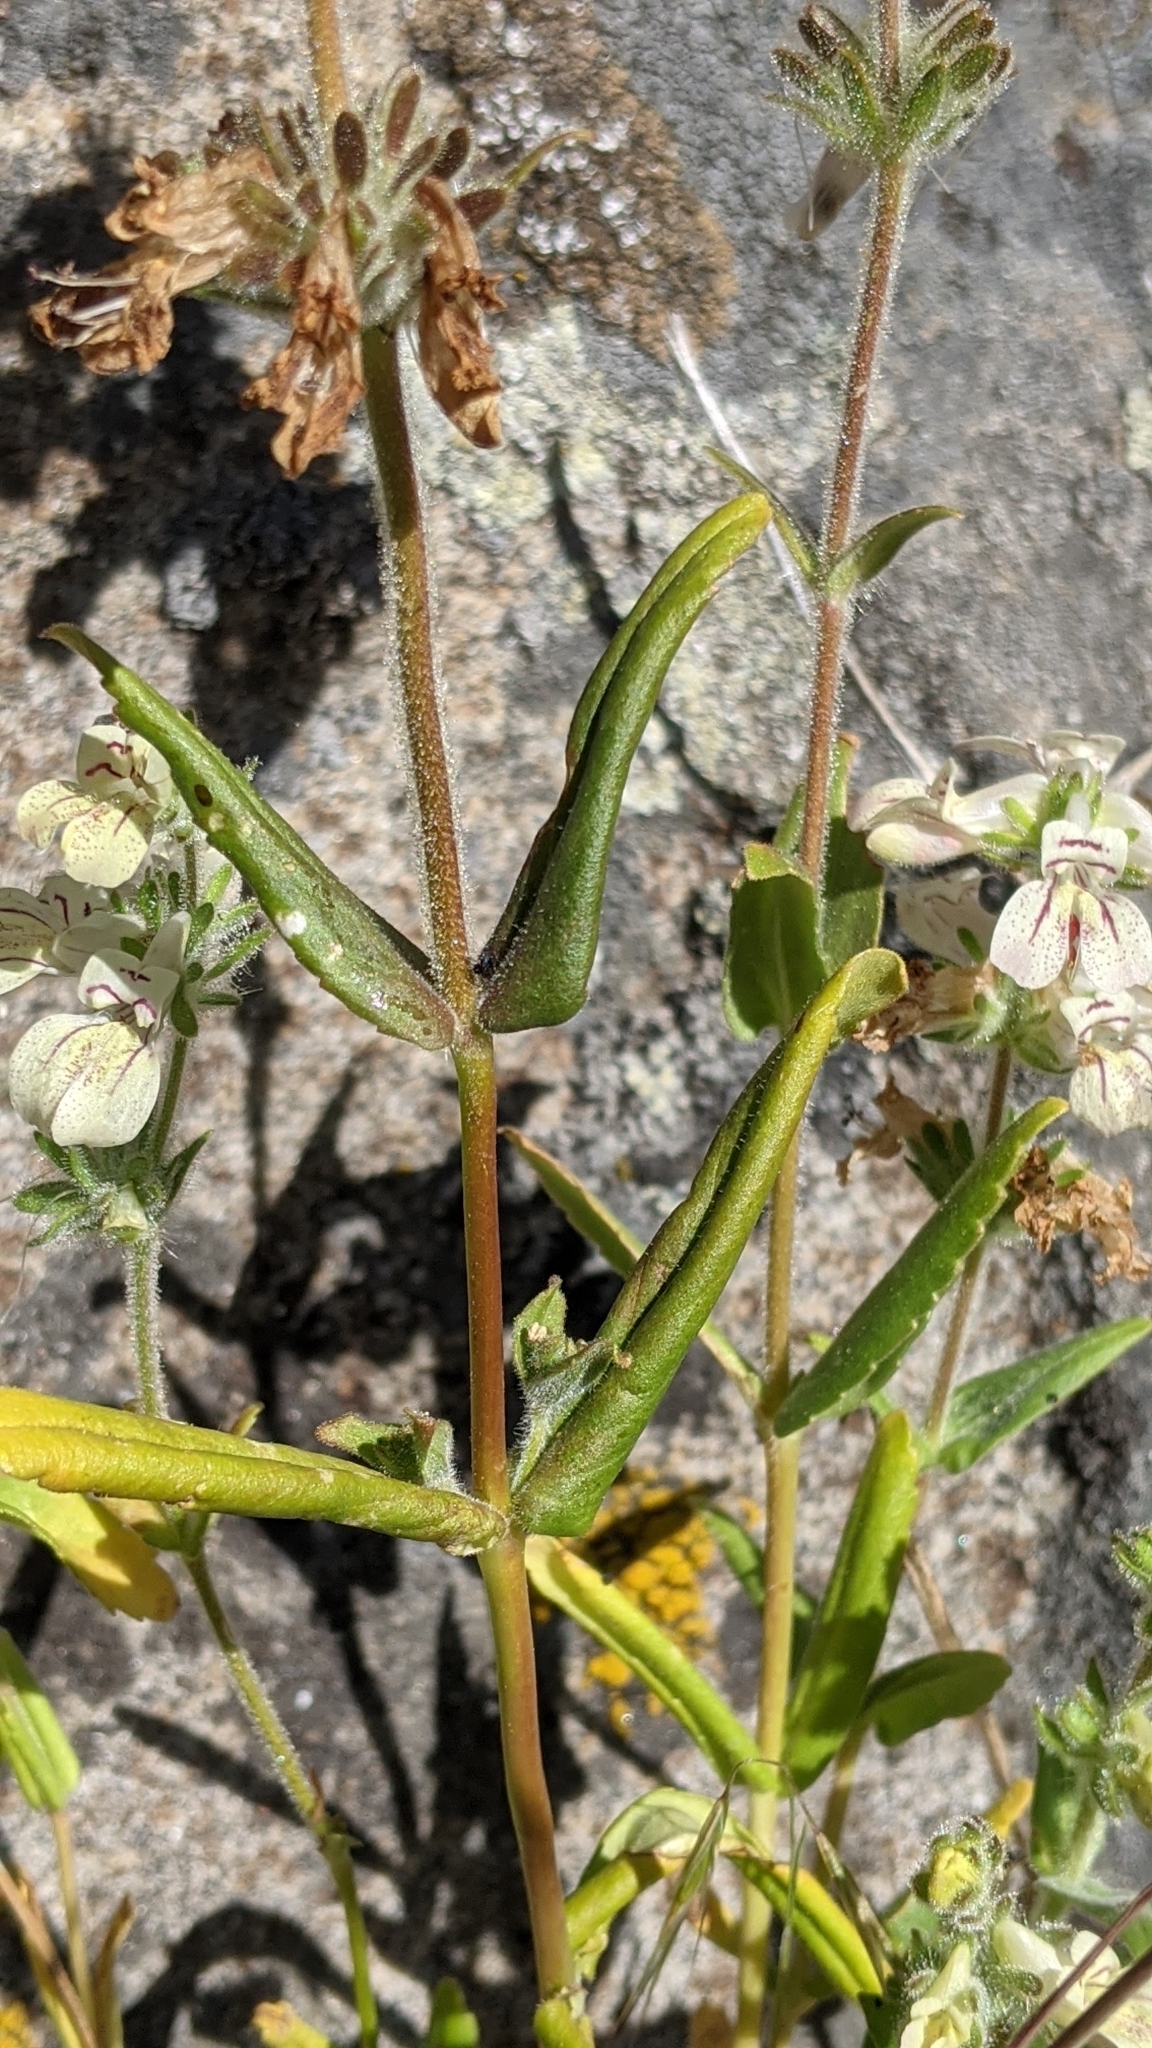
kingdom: Plantae
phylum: Tracheophyta
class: Magnoliopsida
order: Lamiales
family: Plantaginaceae
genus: Collinsia
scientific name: Collinsia tinctoria
